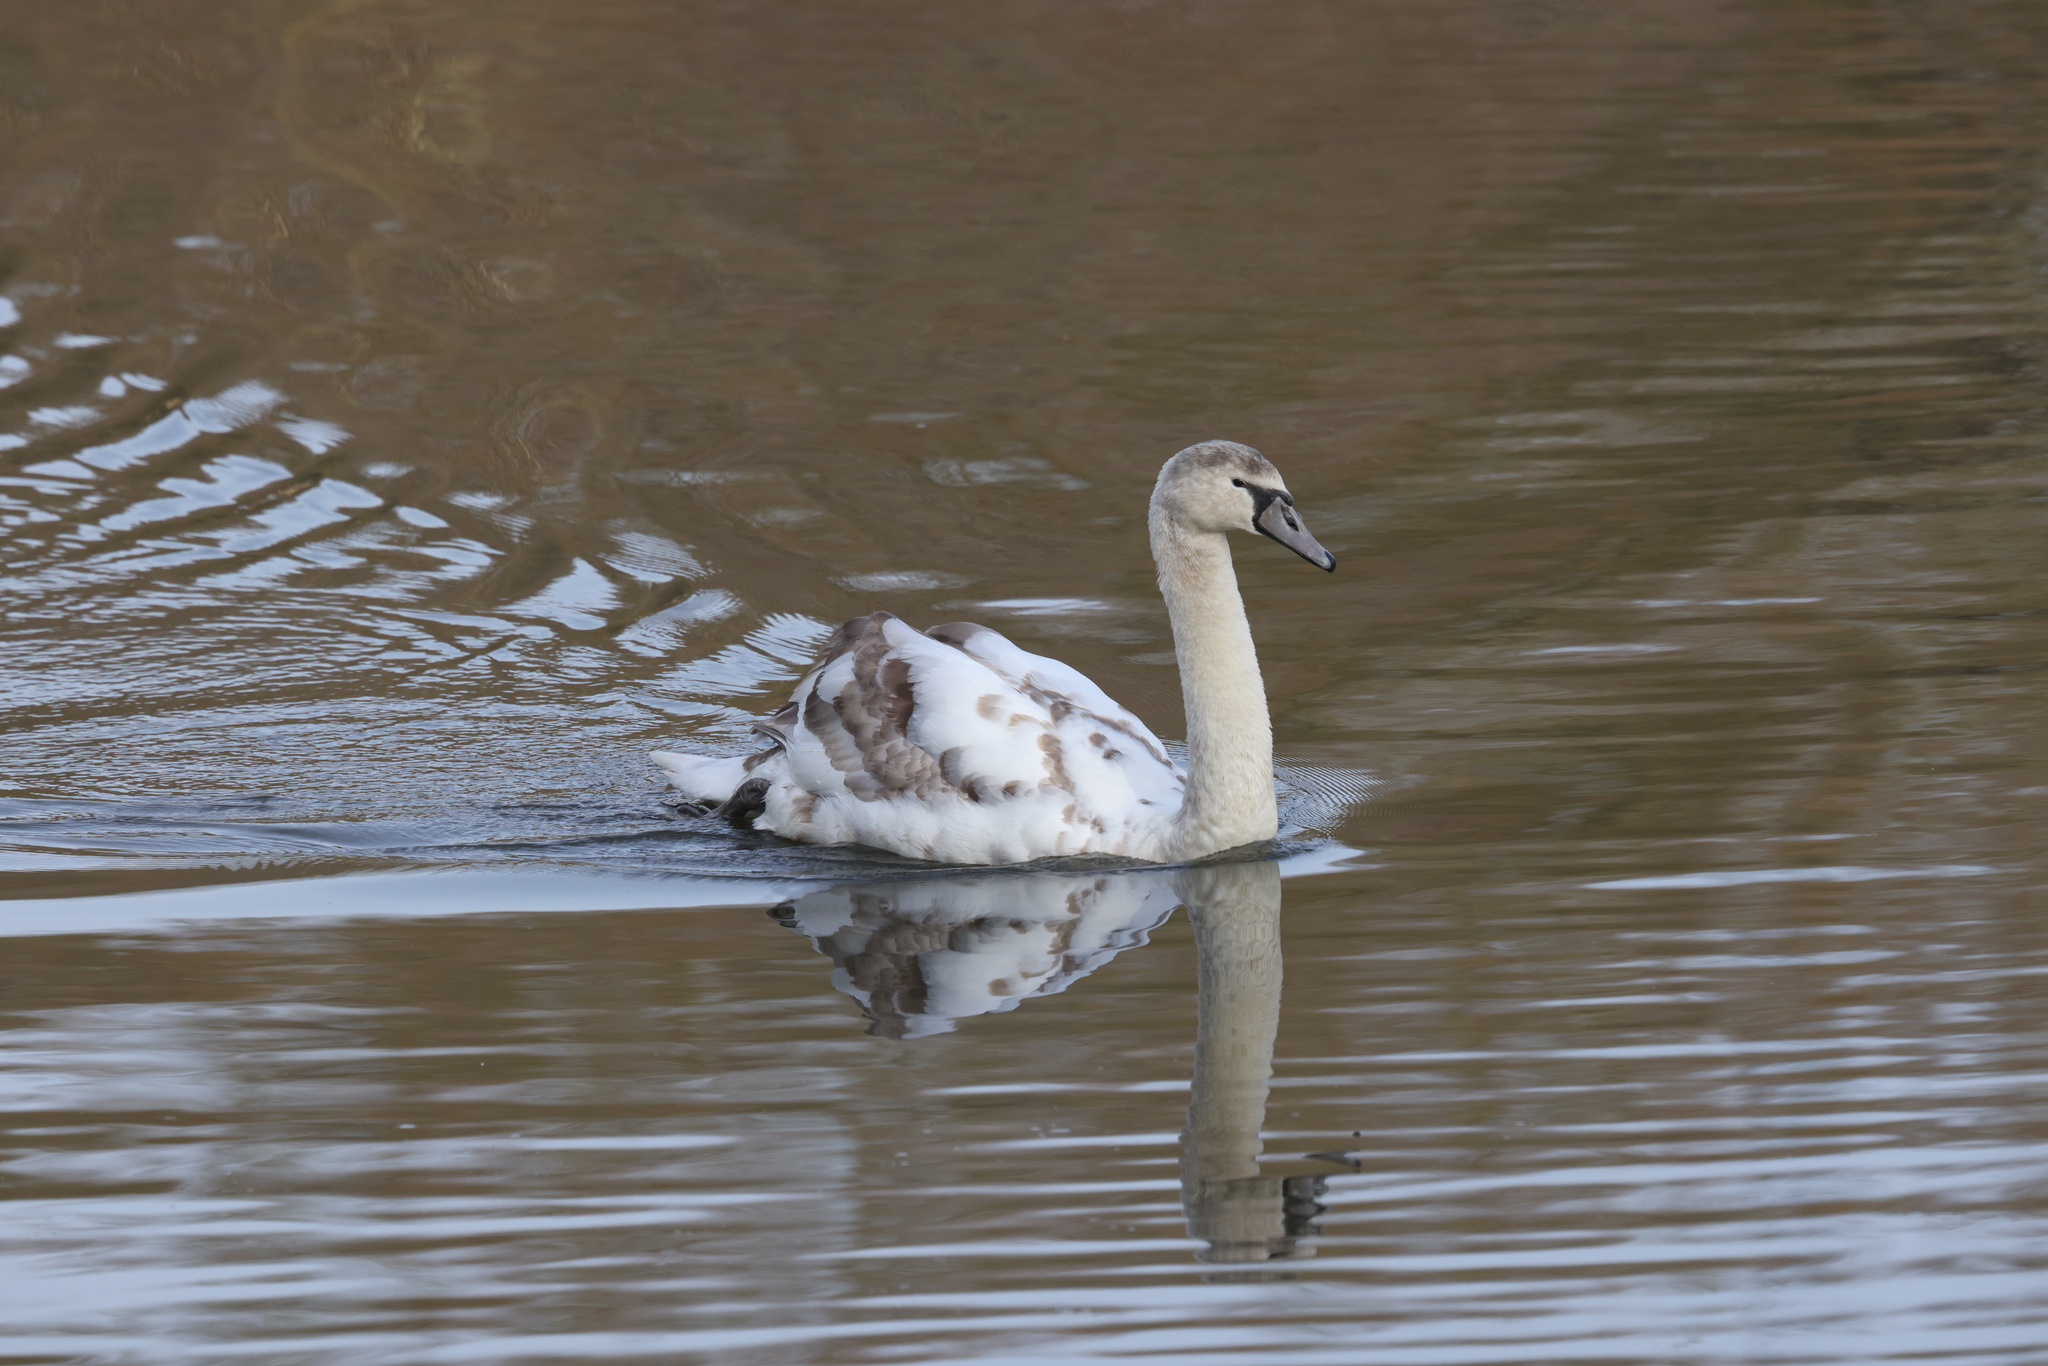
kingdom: Animalia
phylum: Chordata
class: Aves
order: Anseriformes
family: Anatidae
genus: Cygnus
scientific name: Cygnus olor
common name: Mute swan
